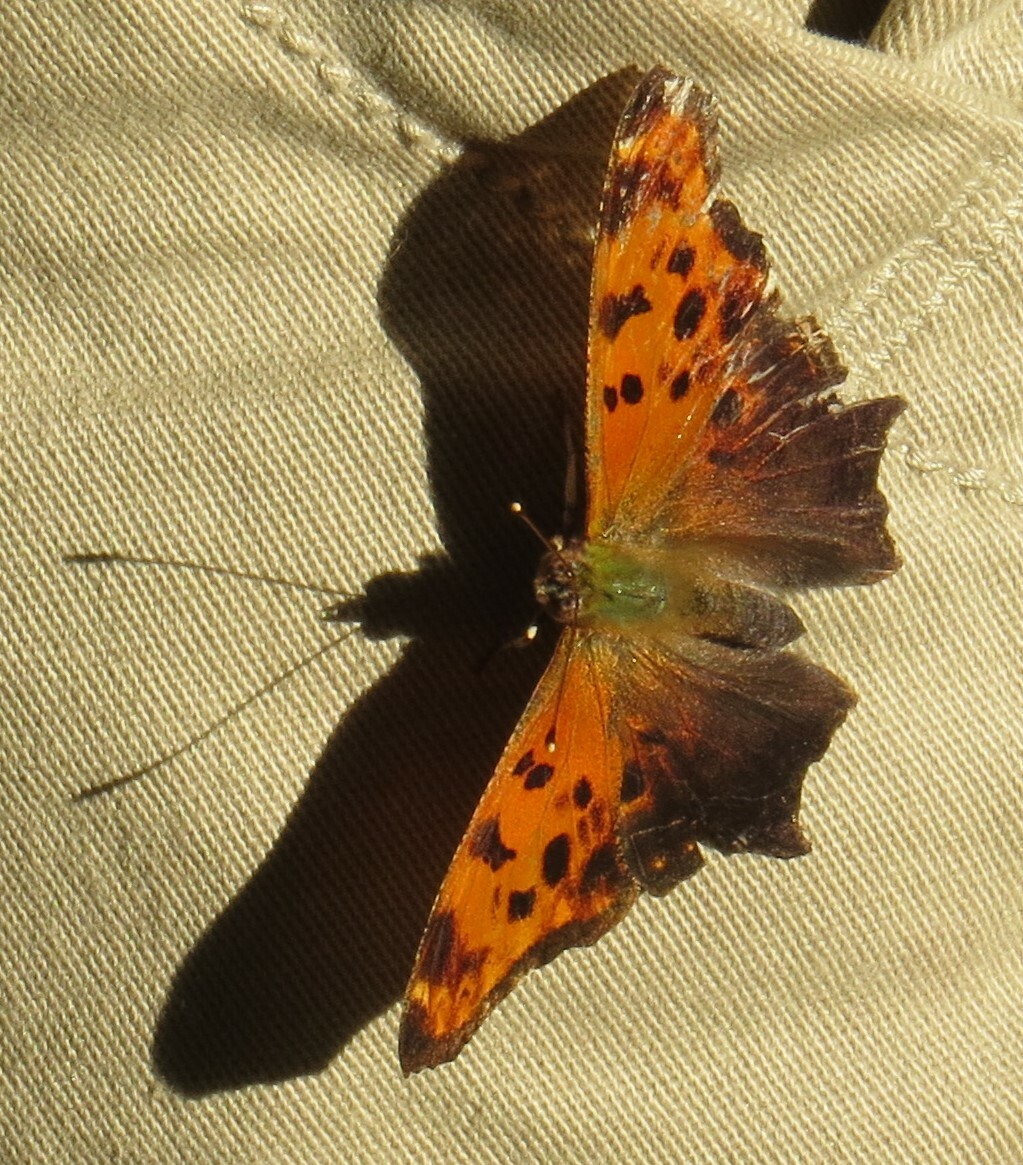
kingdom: Animalia
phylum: Arthropoda
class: Insecta
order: Lepidoptera
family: Nymphalidae
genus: Polygonia
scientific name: Polygonia comma
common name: Eastern comma
